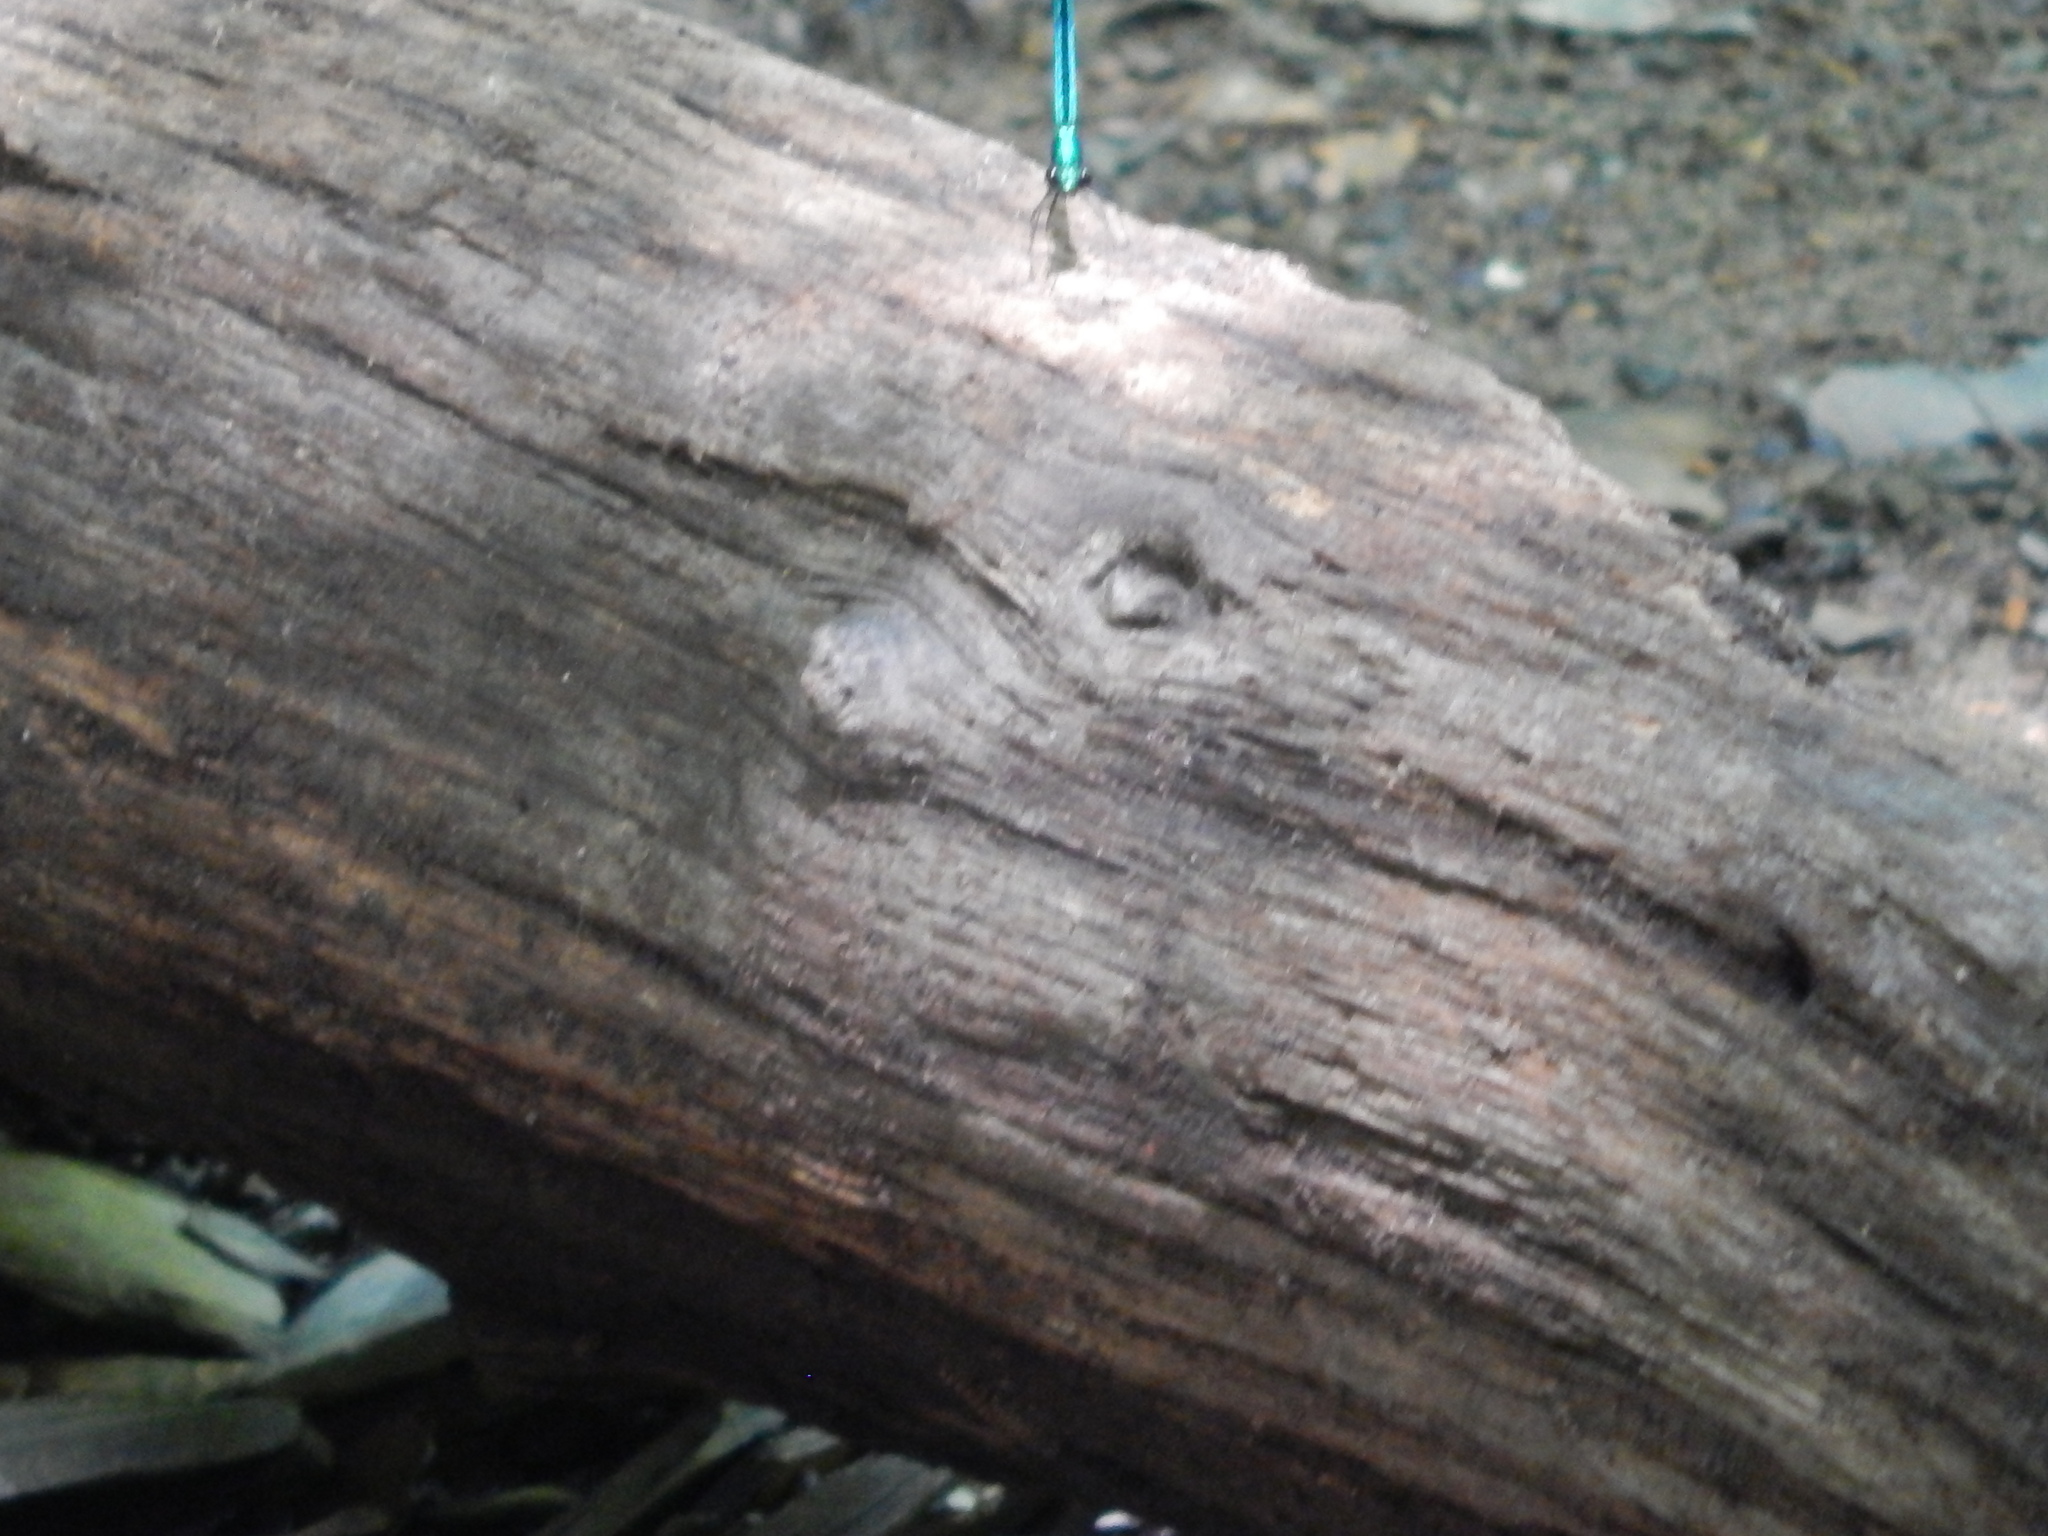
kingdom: Animalia
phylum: Arthropoda
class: Insecta
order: Odonata
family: Calopterygidae
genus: Calopteryx
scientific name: Calopteryx maculata
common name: Ebony jewelwing
